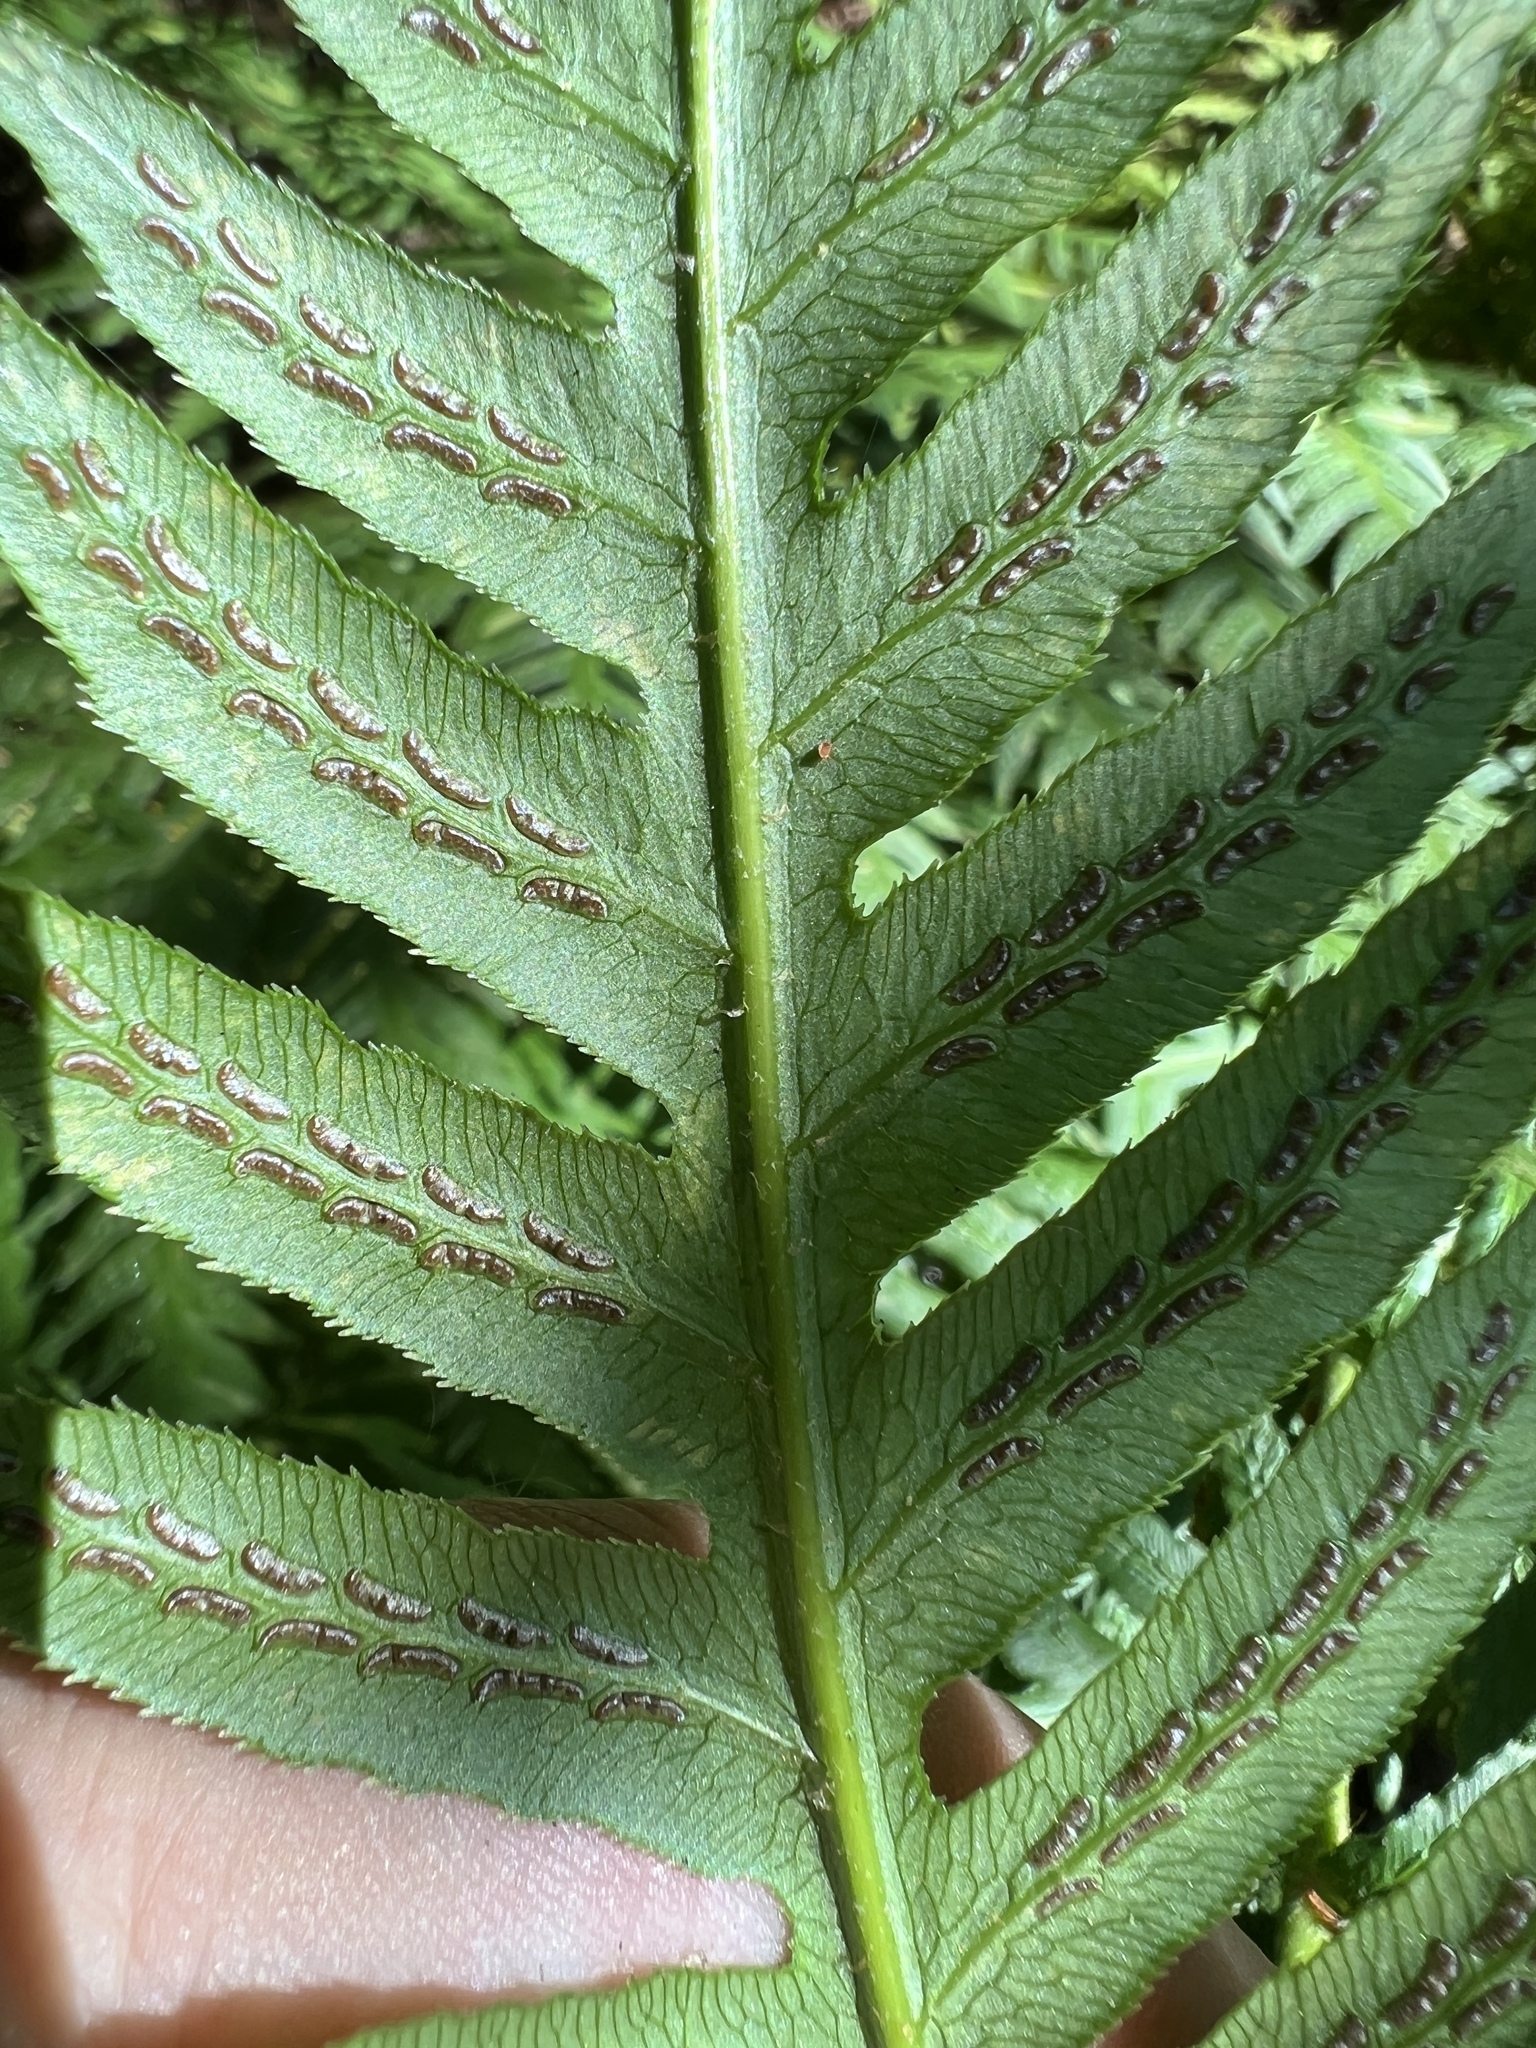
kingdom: Plantae
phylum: Tracheophyta
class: Polypodiopsida
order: Polypodiales
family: Blechnaceae
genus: Woodwardia
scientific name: Woodwardia fimbriata
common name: Giant chain fern
